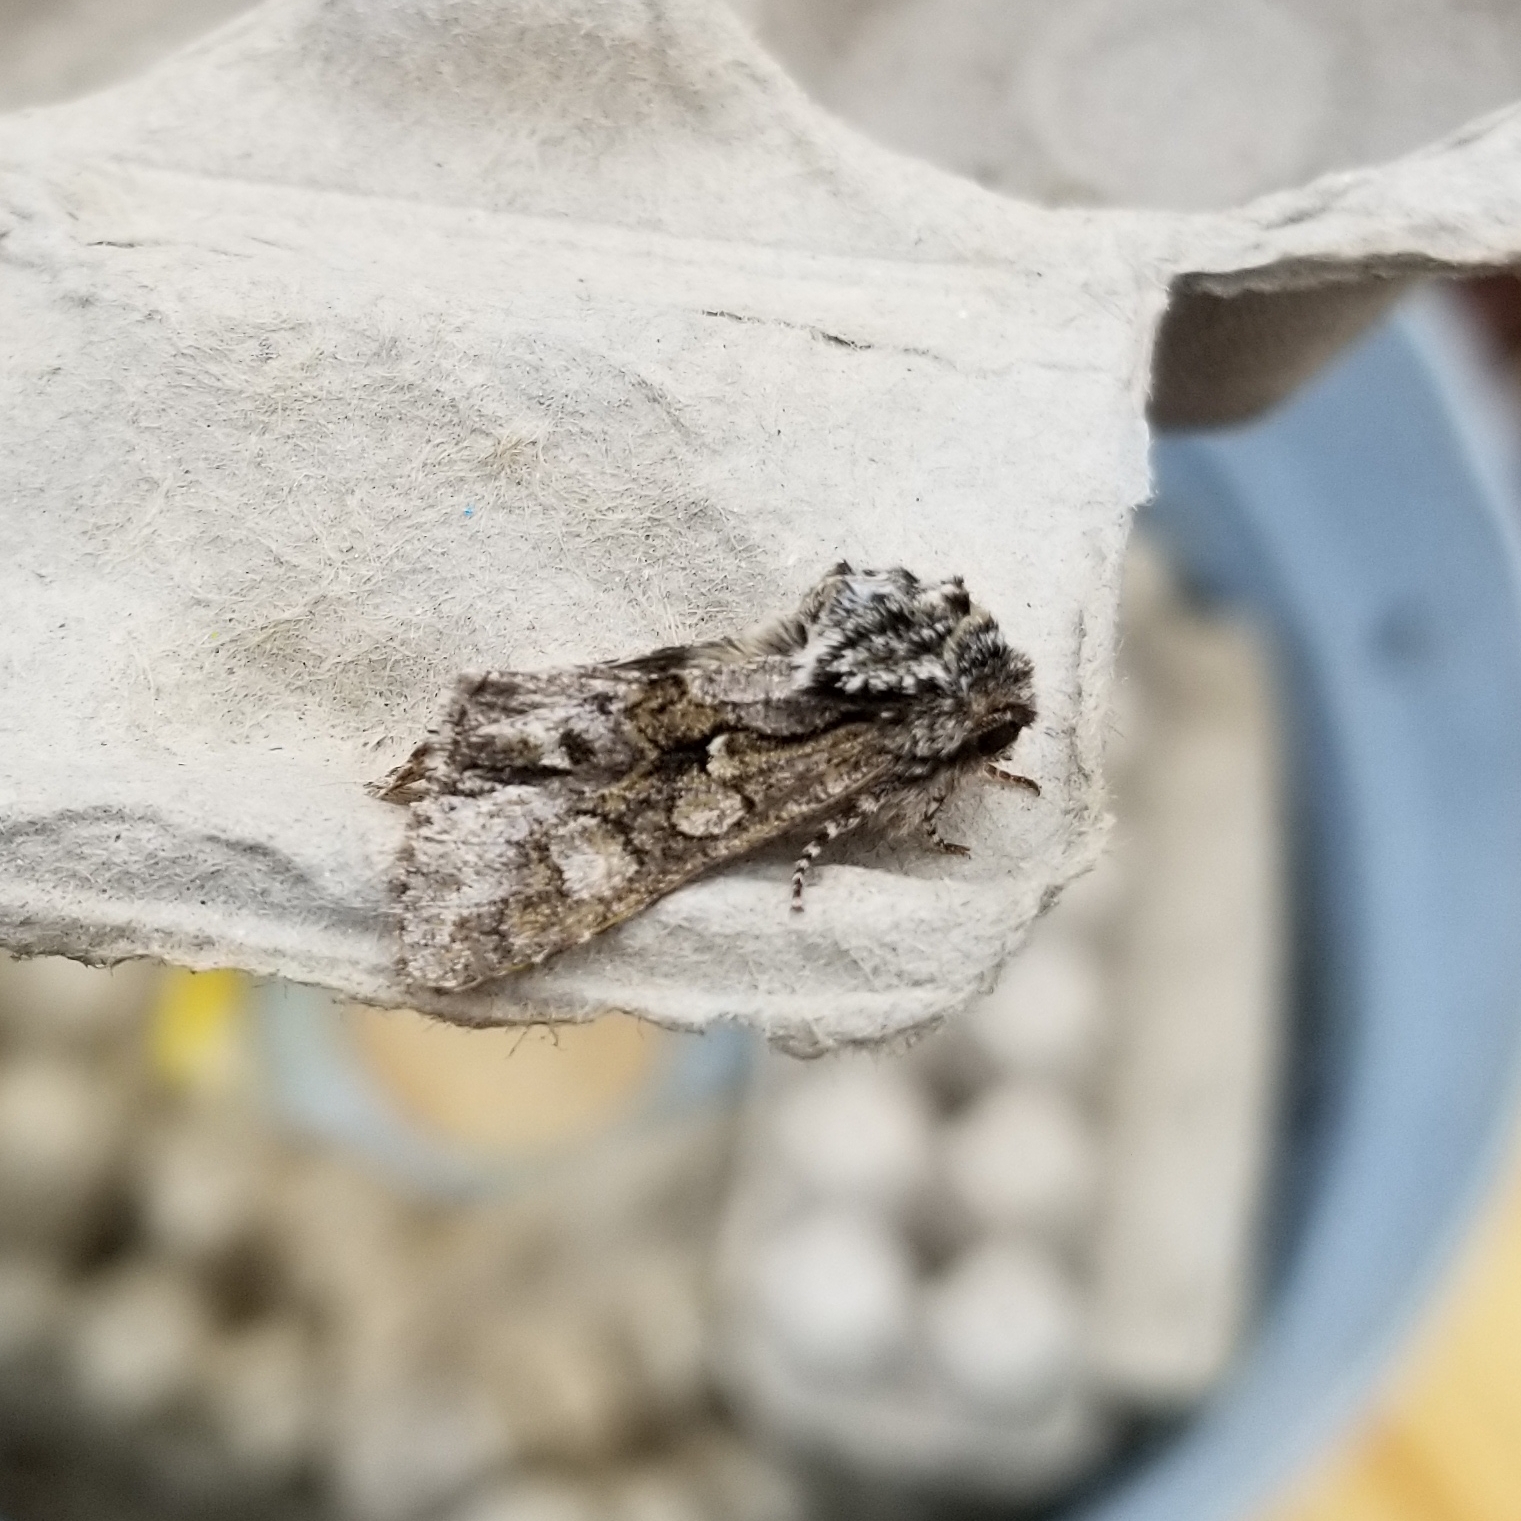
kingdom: Animalia
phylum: Arthropoda
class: Insecta
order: Lepidoptera
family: Noctuidae
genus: Psaphida
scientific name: Psaphida resumens
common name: Figure-eight sallow
